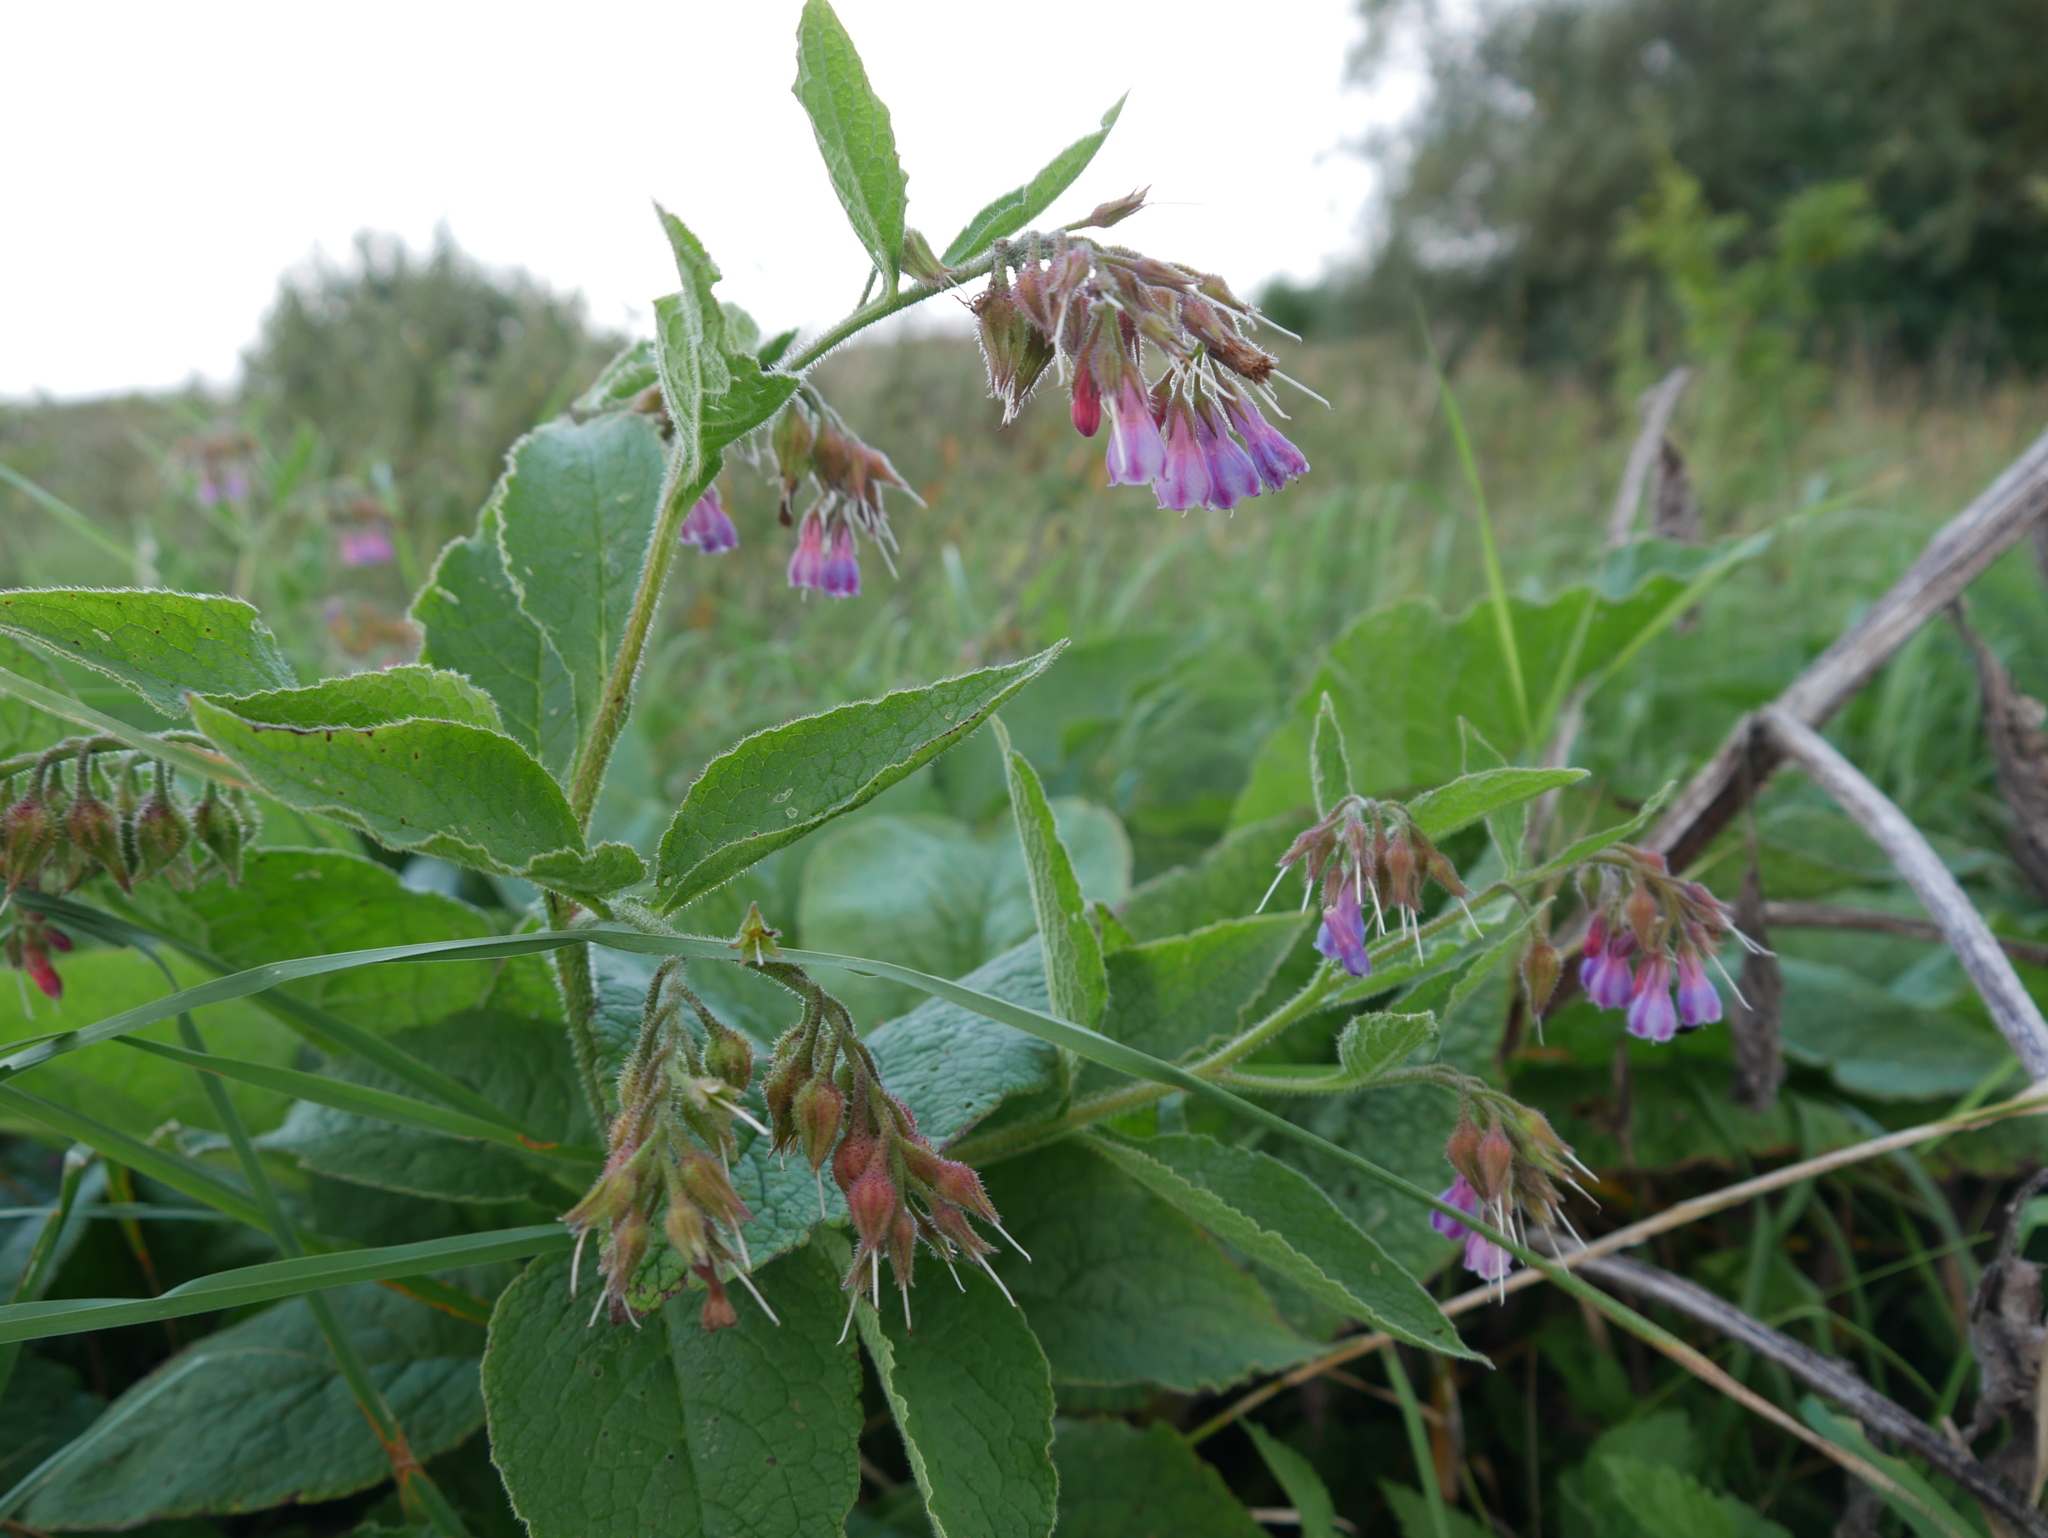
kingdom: Plantae
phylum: Tracheophyta
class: Magnoliopsida
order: Boraginales
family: Boraginaceae
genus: Symphytum
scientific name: Symphytum uplandicum
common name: Russian comfrey
